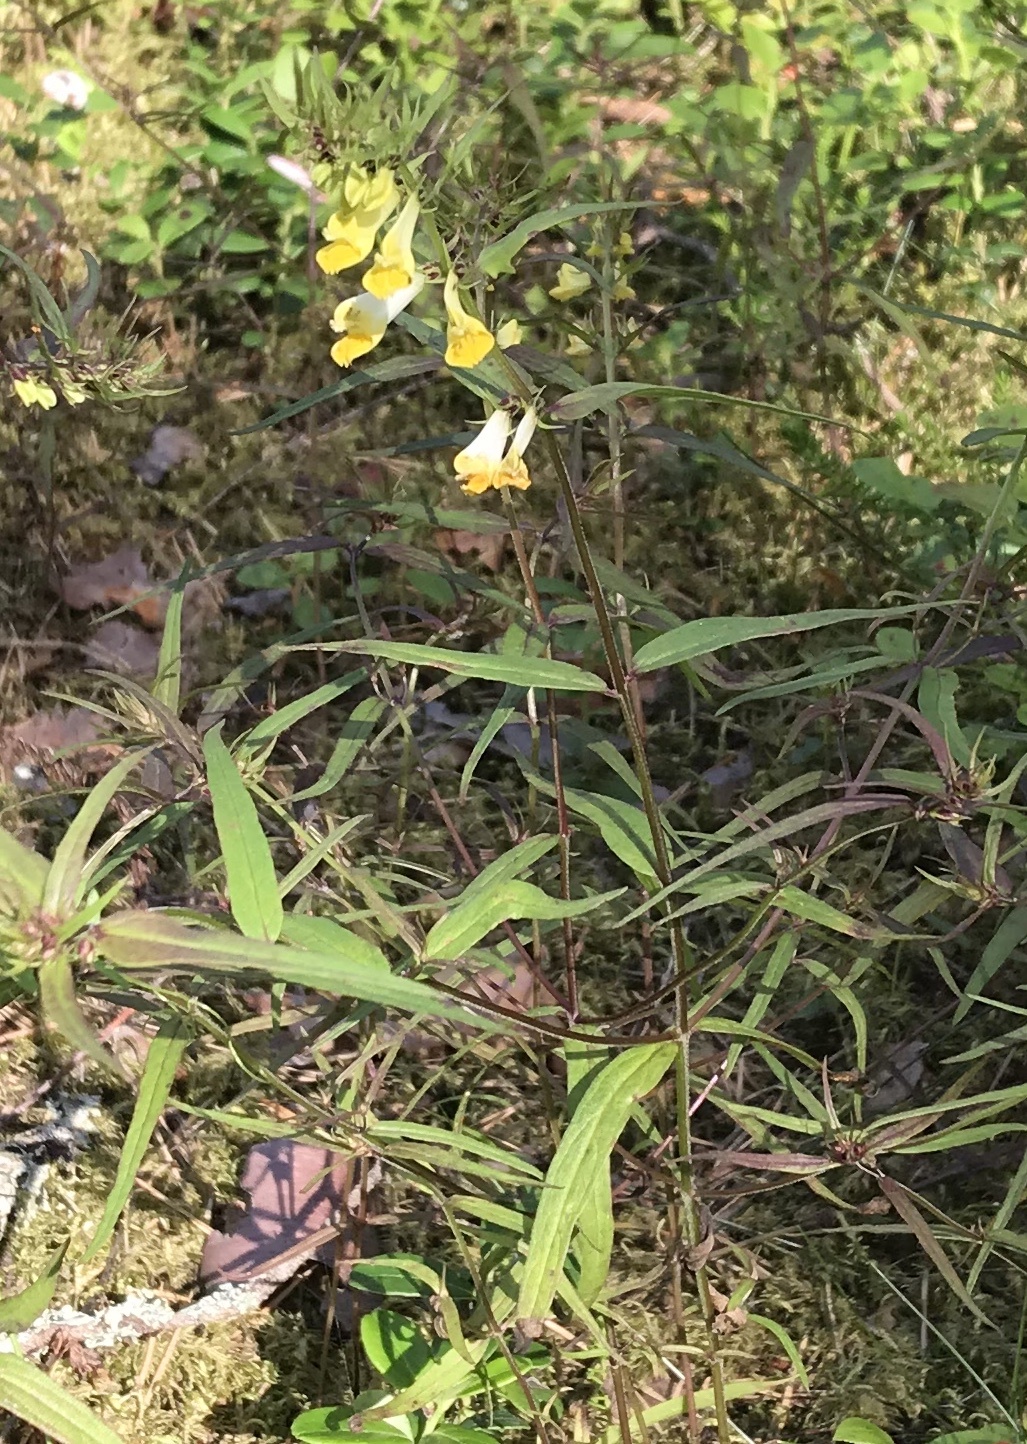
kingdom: Plantae
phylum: Tracheophyta
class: Magnoliopsida
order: Lamiales
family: Orobanchaceae
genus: Melampyrum
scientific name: Melampyrum nemorosum
